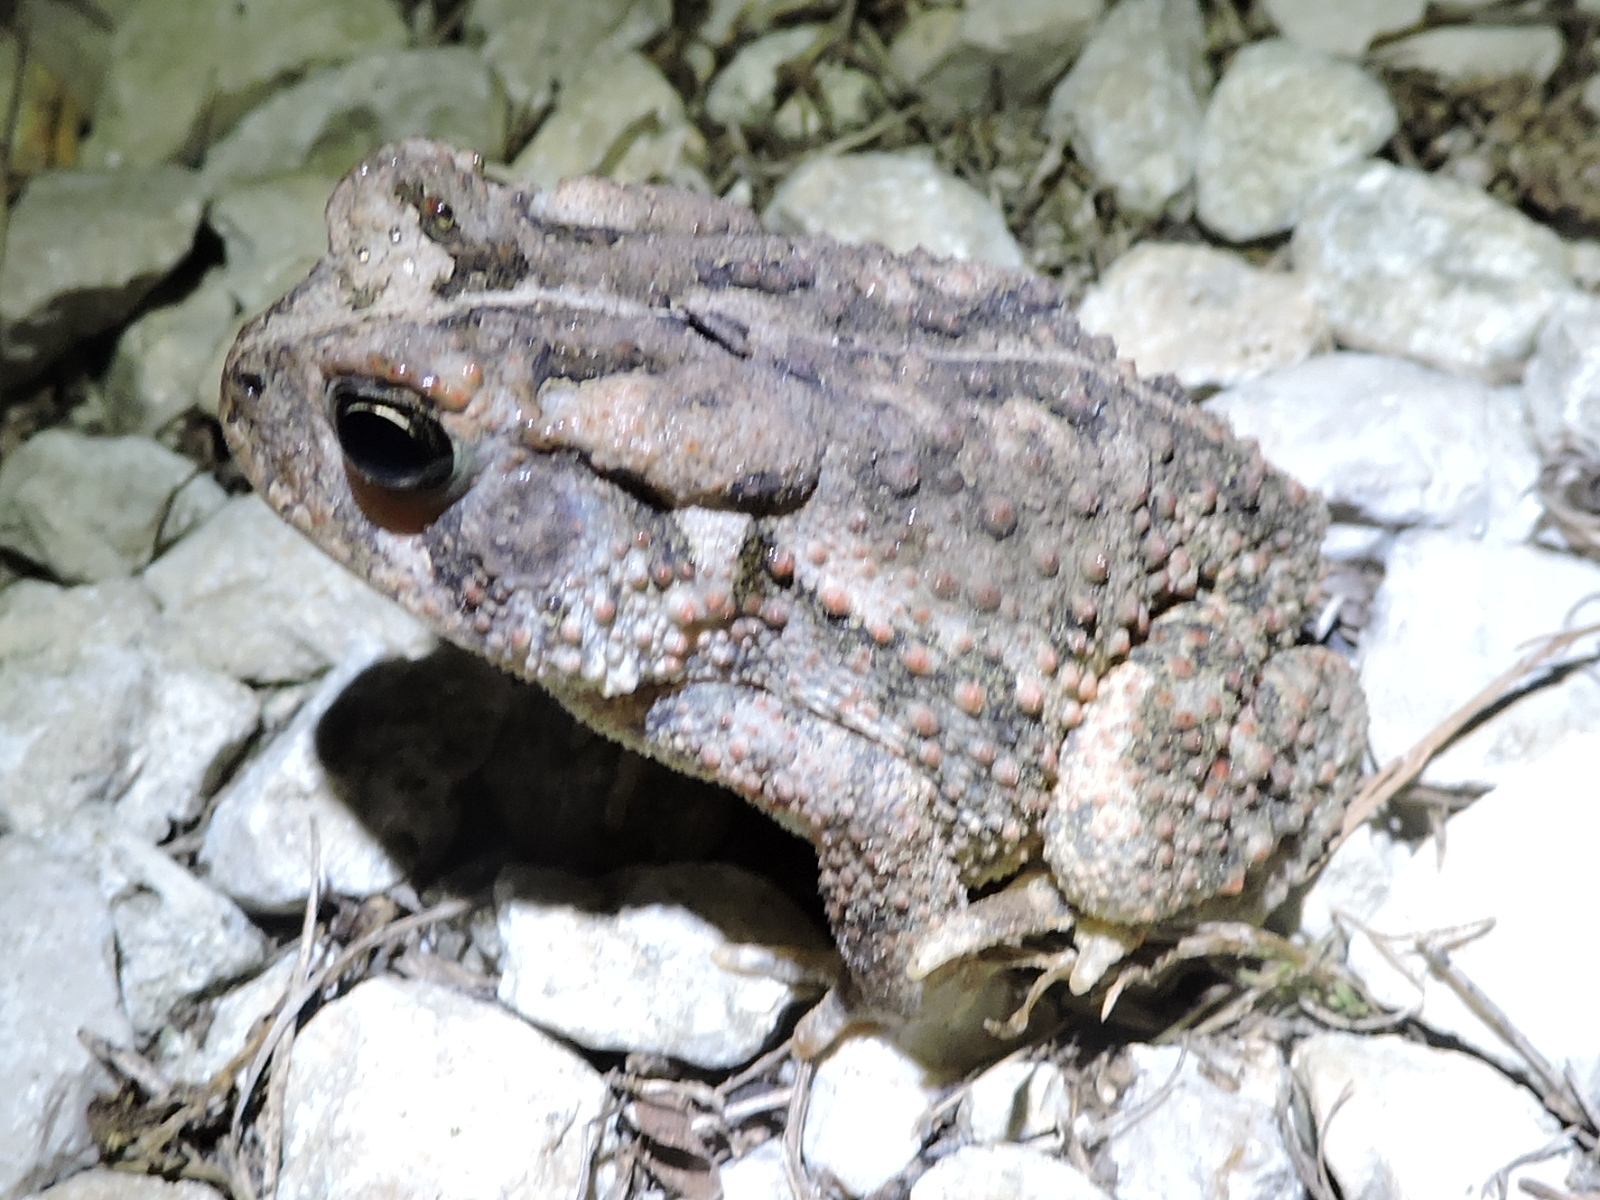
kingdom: Animalia
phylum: Chordata
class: Amphibia
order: Anura
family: Bufonidae
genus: Anaxyrus
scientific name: Anaxyrus fowleri
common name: Fowler's toad
